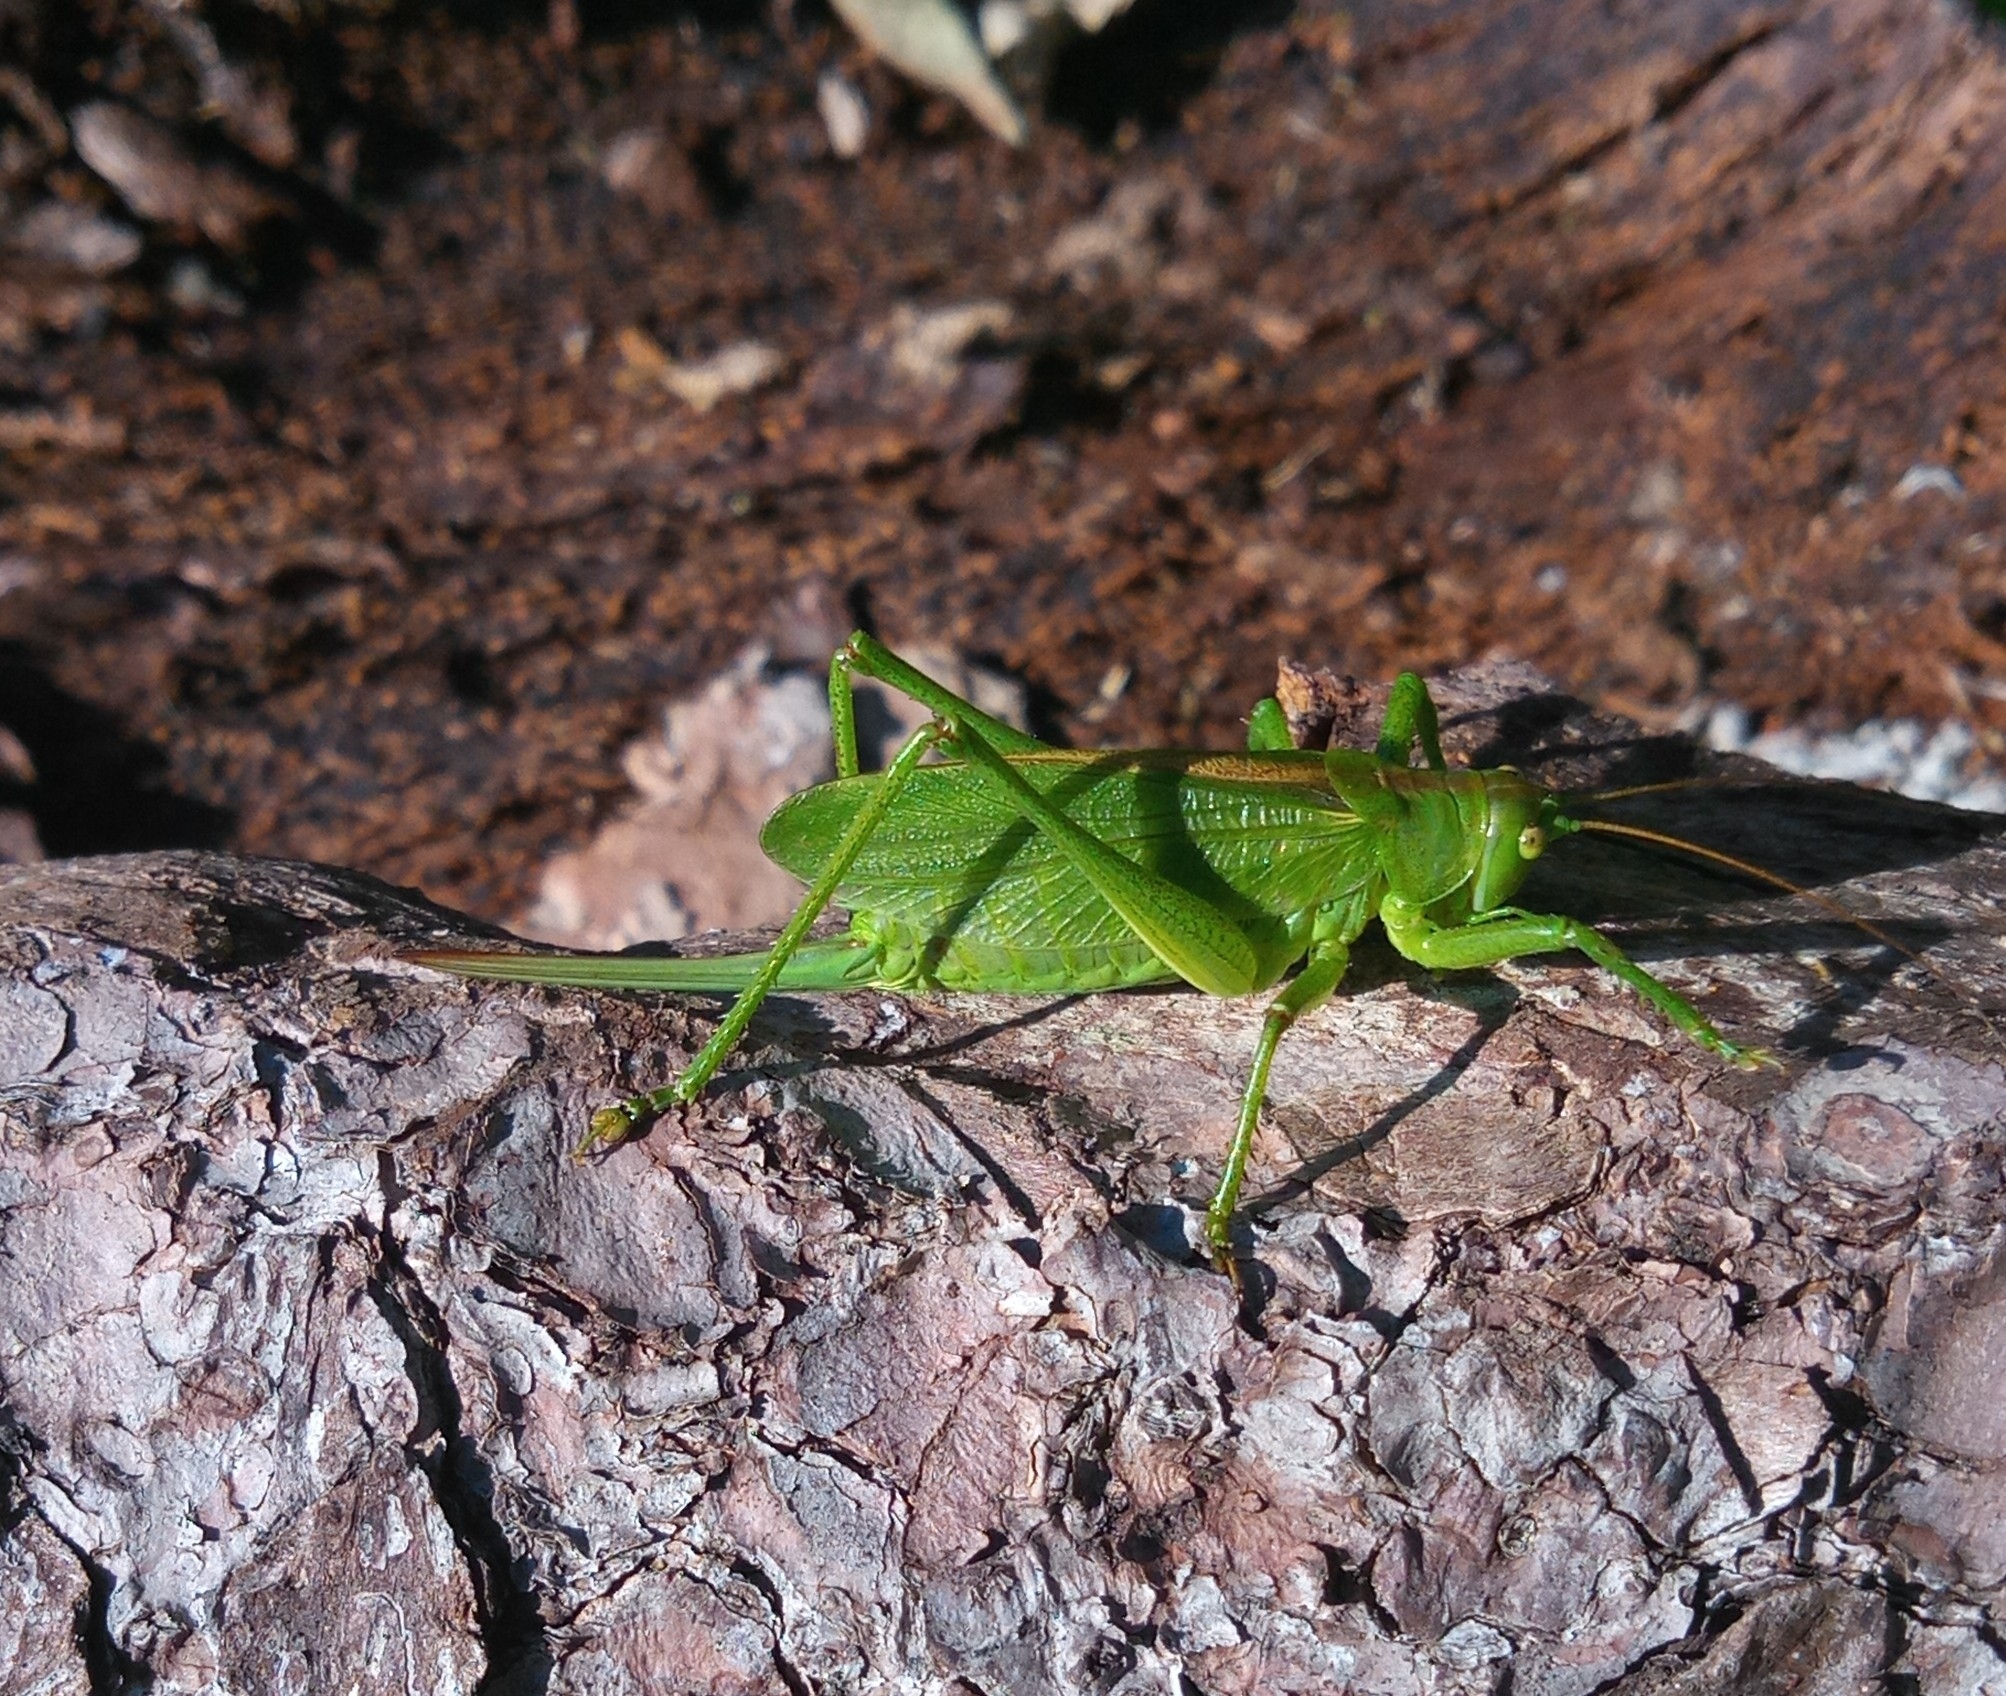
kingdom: Animalia
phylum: Arthropoda
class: Insecta
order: Orthoptera
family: Tettigoniidae
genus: Tettigonia
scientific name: Tettigonia cantans
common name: Upland green bush-cricket
